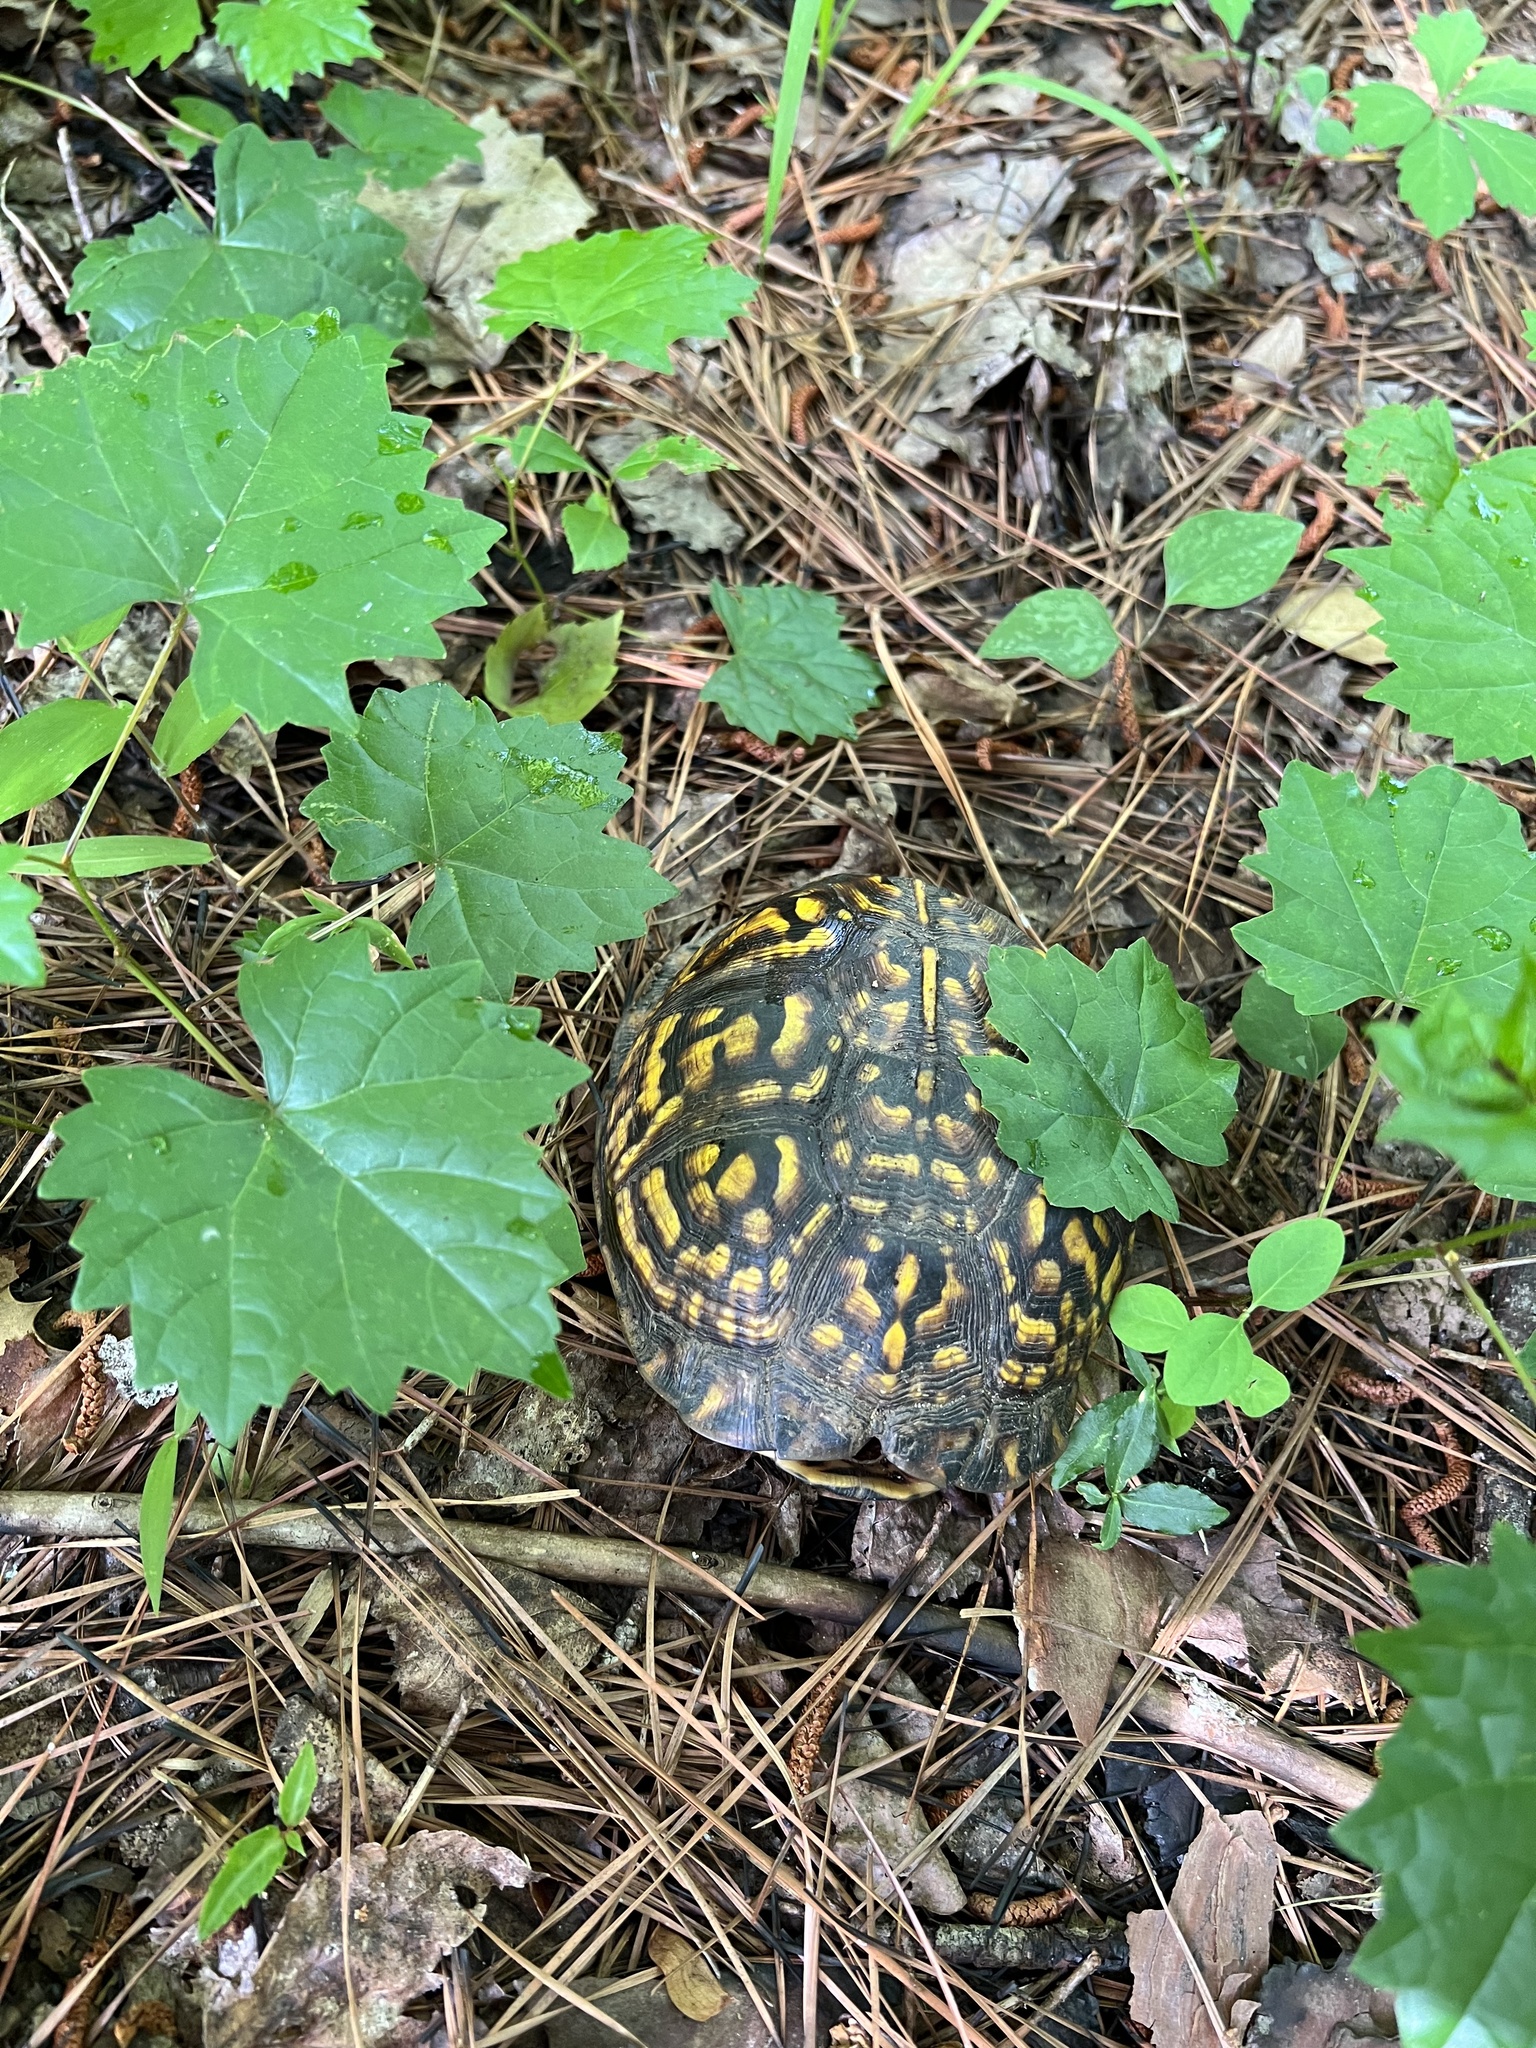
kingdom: Animalia
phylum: Chordata
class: Testudines
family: Emydidae
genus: Terrapene
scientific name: Terrapene carolina
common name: Common box turtle
